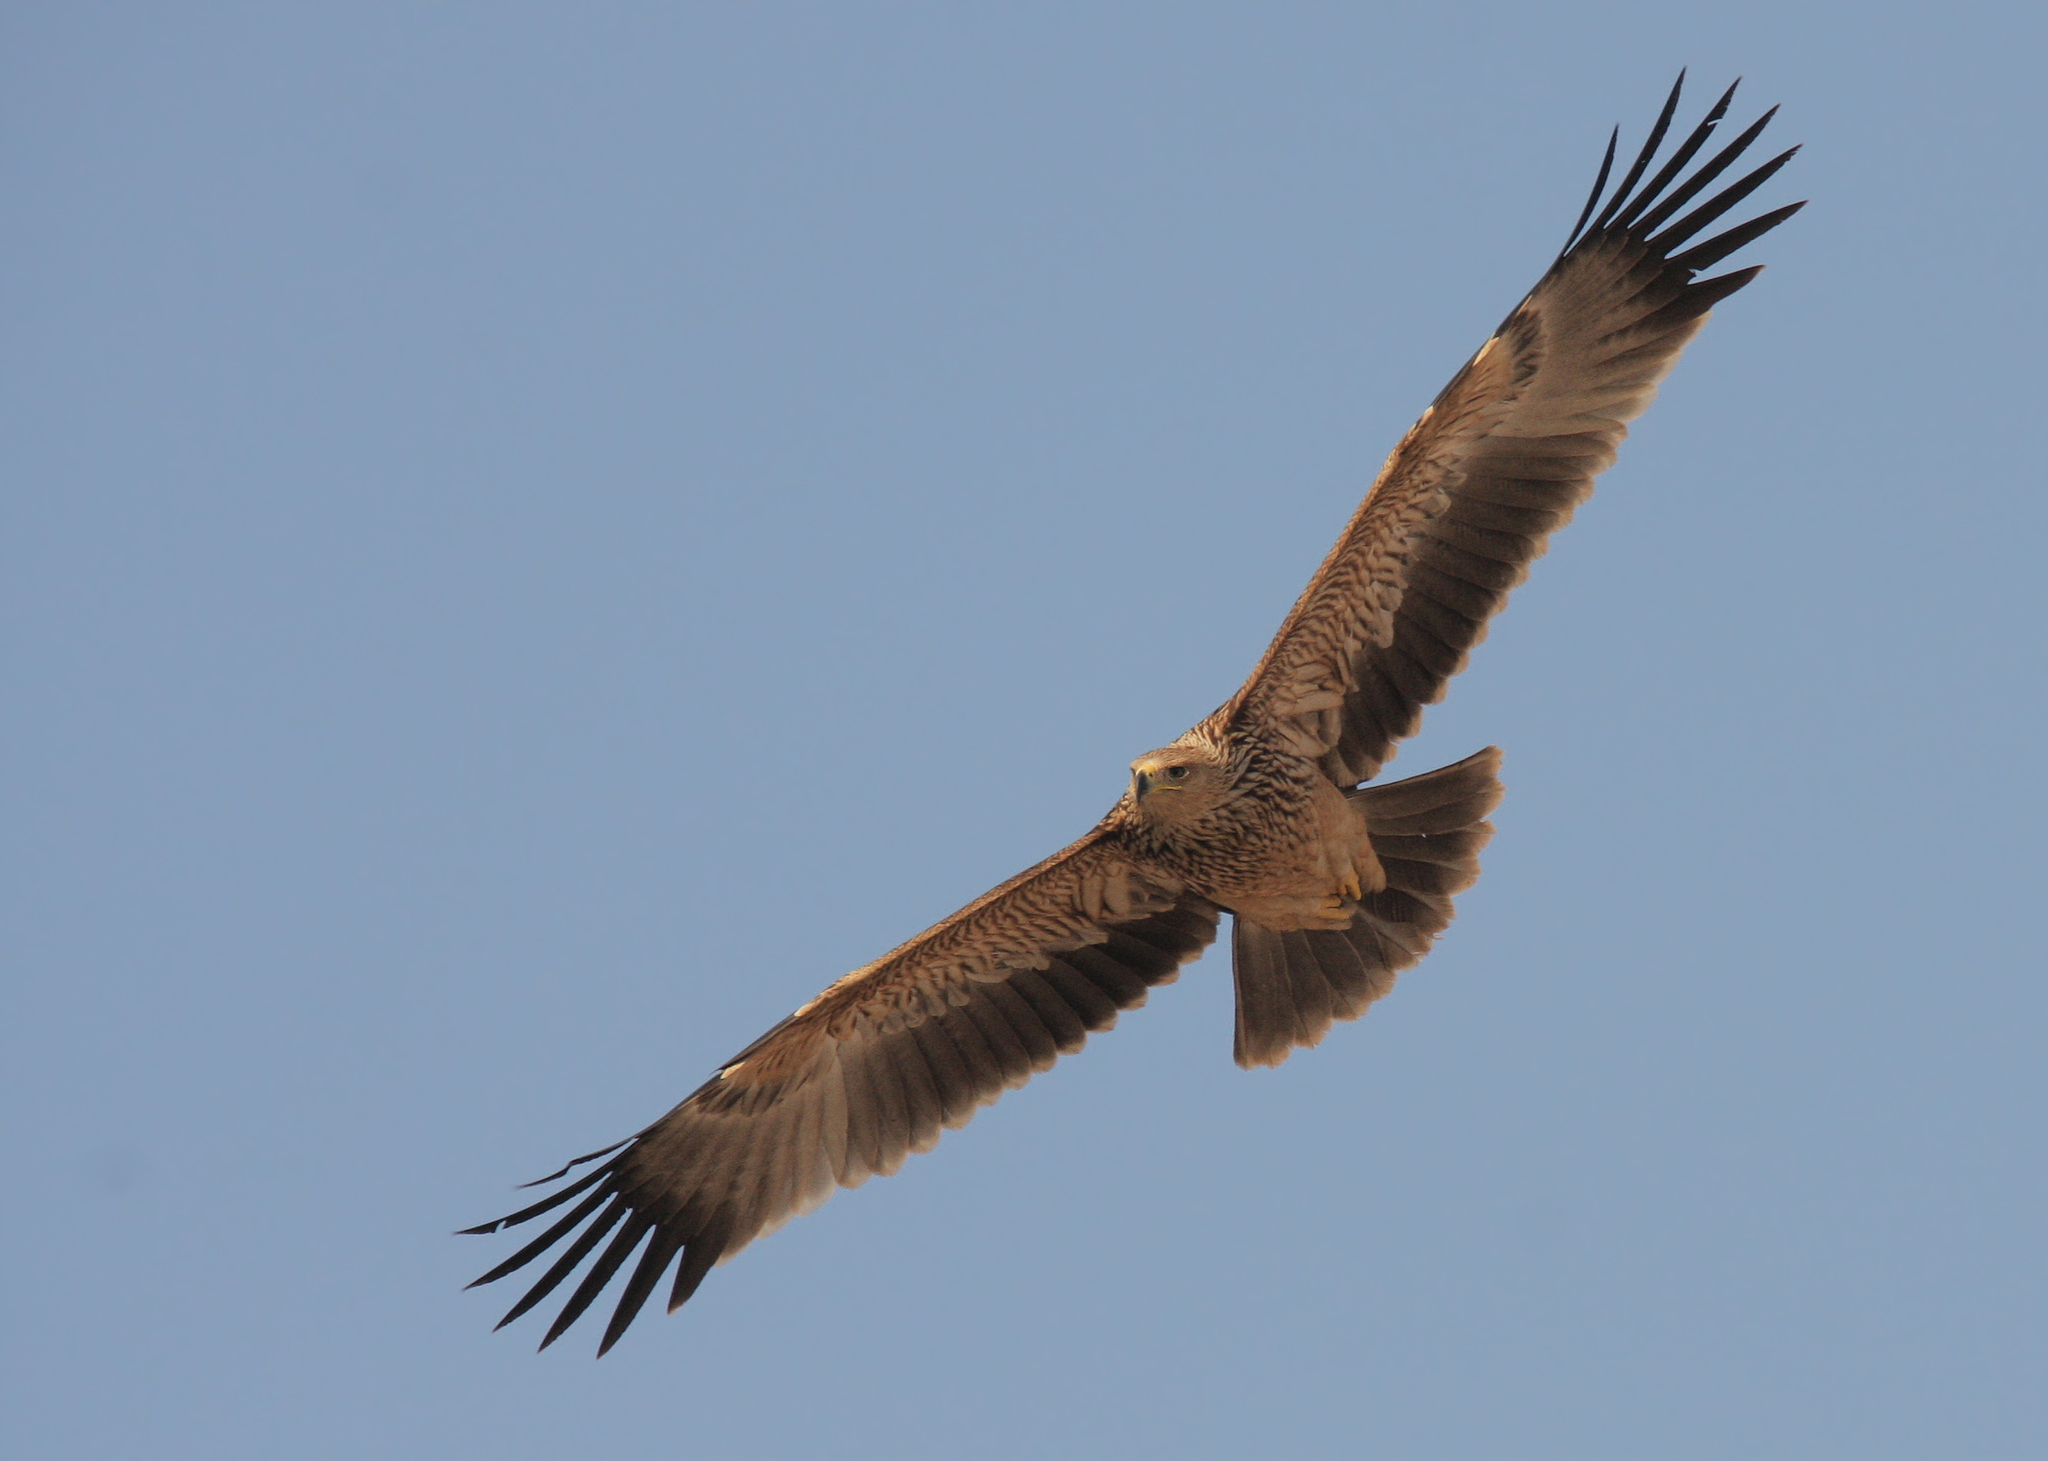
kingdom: Animalia
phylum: Chordata
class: Aves
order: Accipitriformes
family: Accipitridae
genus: Aquila
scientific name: Aquila heliaca
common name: Eastern imperial eagle
